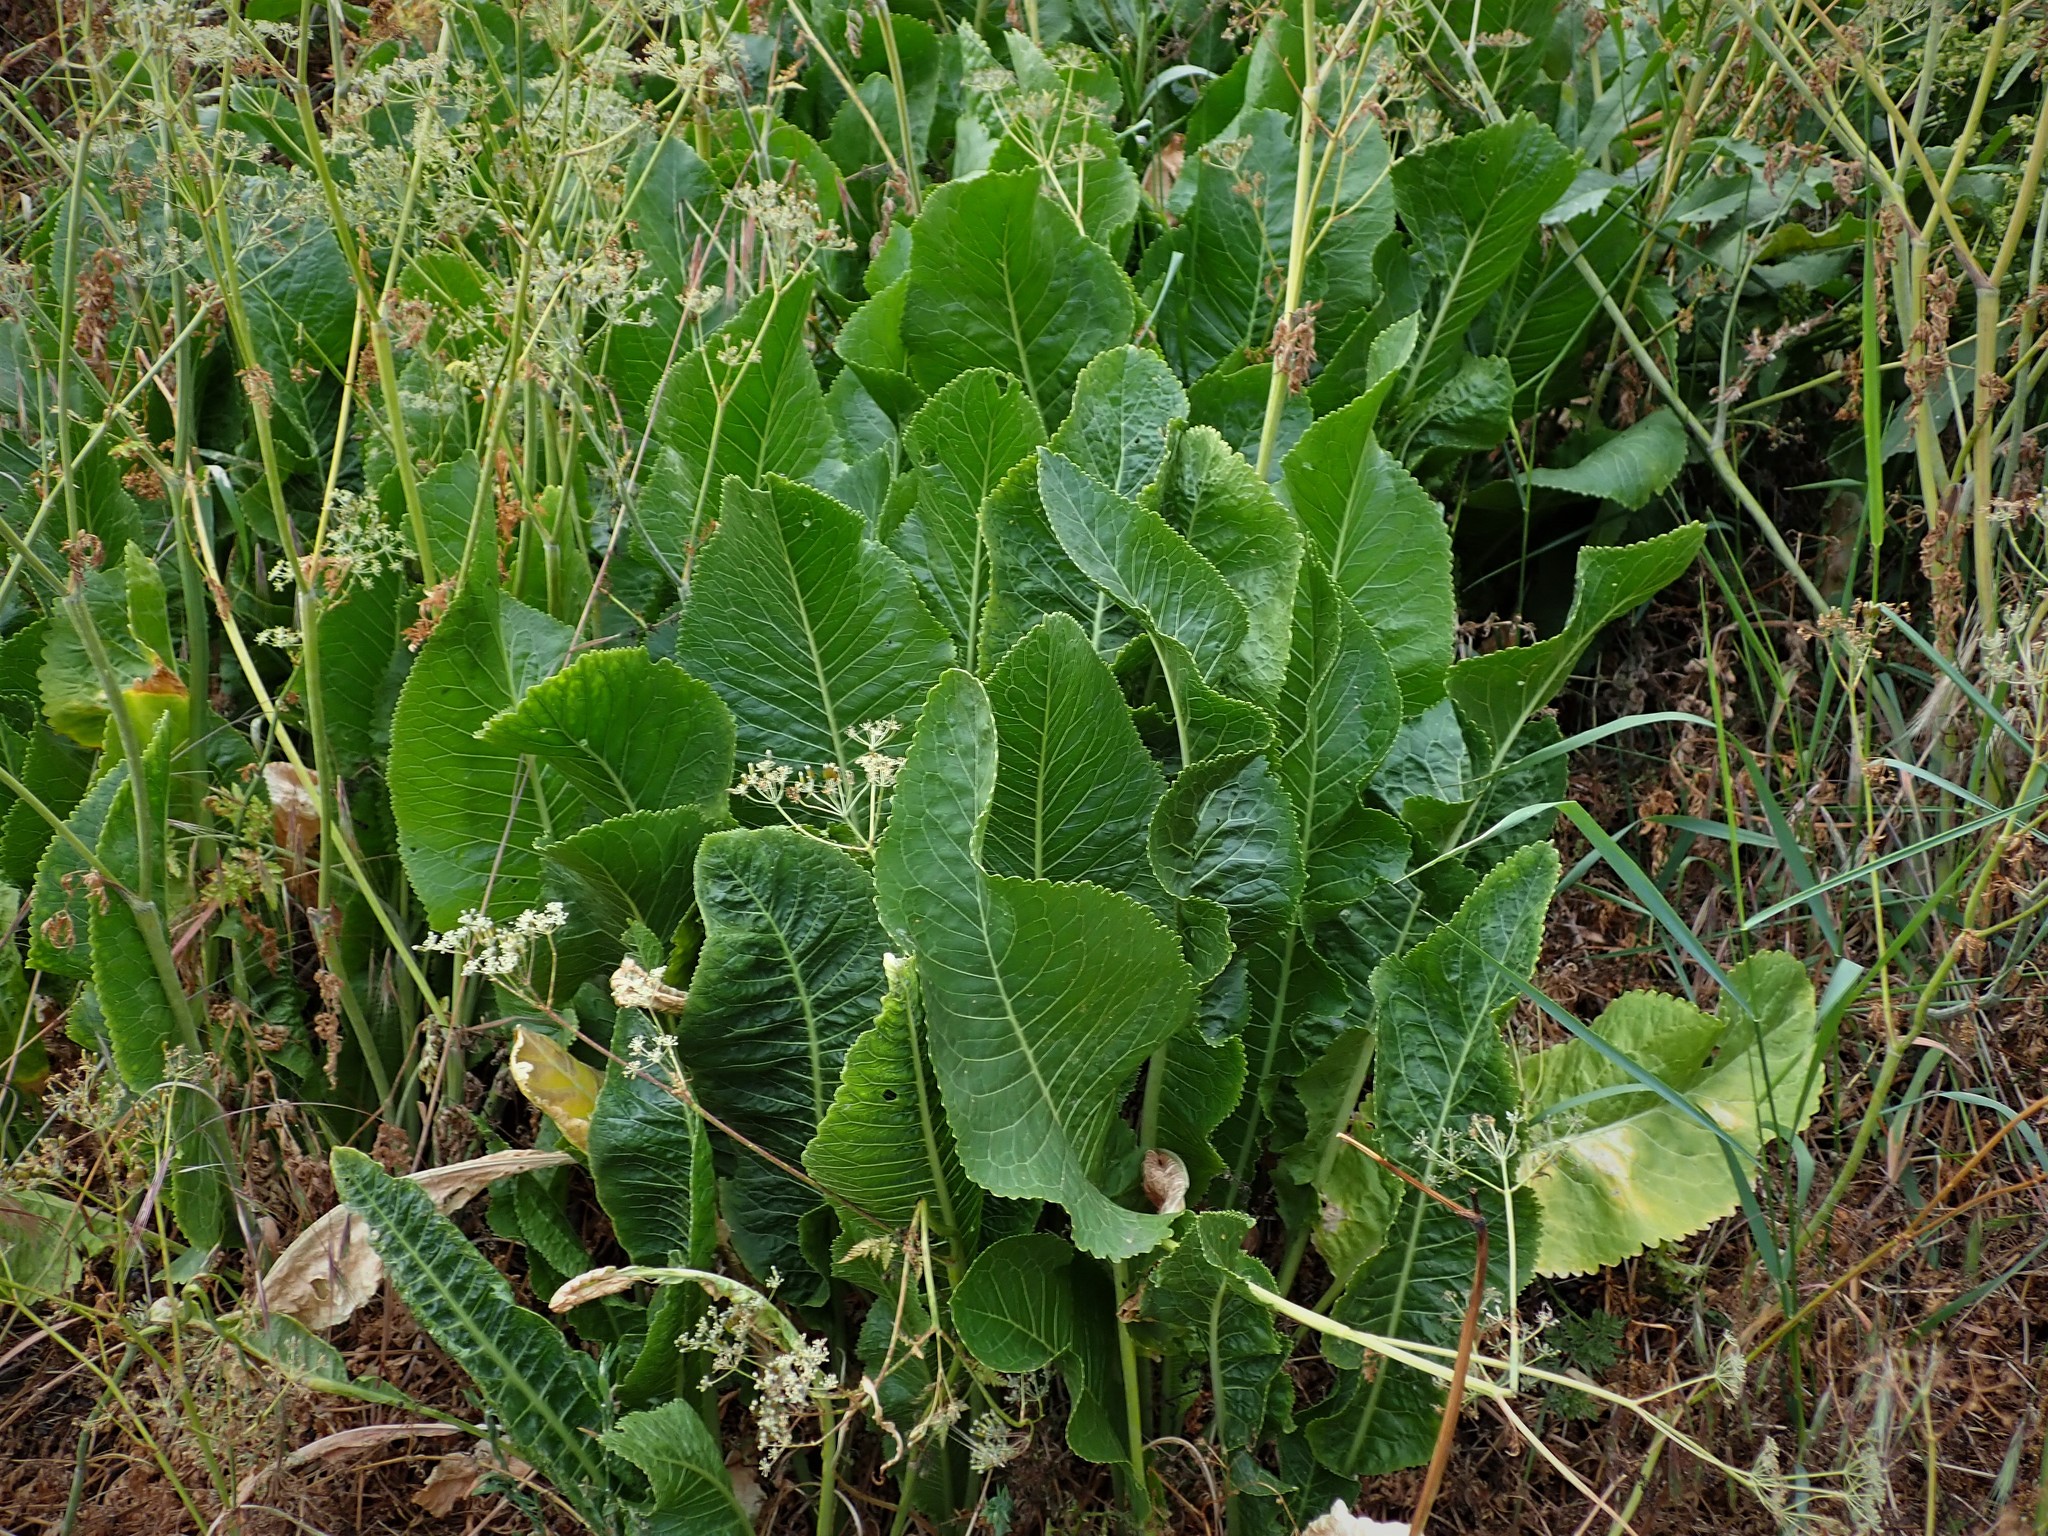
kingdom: Plantae
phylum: Tracheophyta
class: Magnoliopsida
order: Brassicales
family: Brassicaceae
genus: Armoracia
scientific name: Armoracia rusticana
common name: Horseradish
